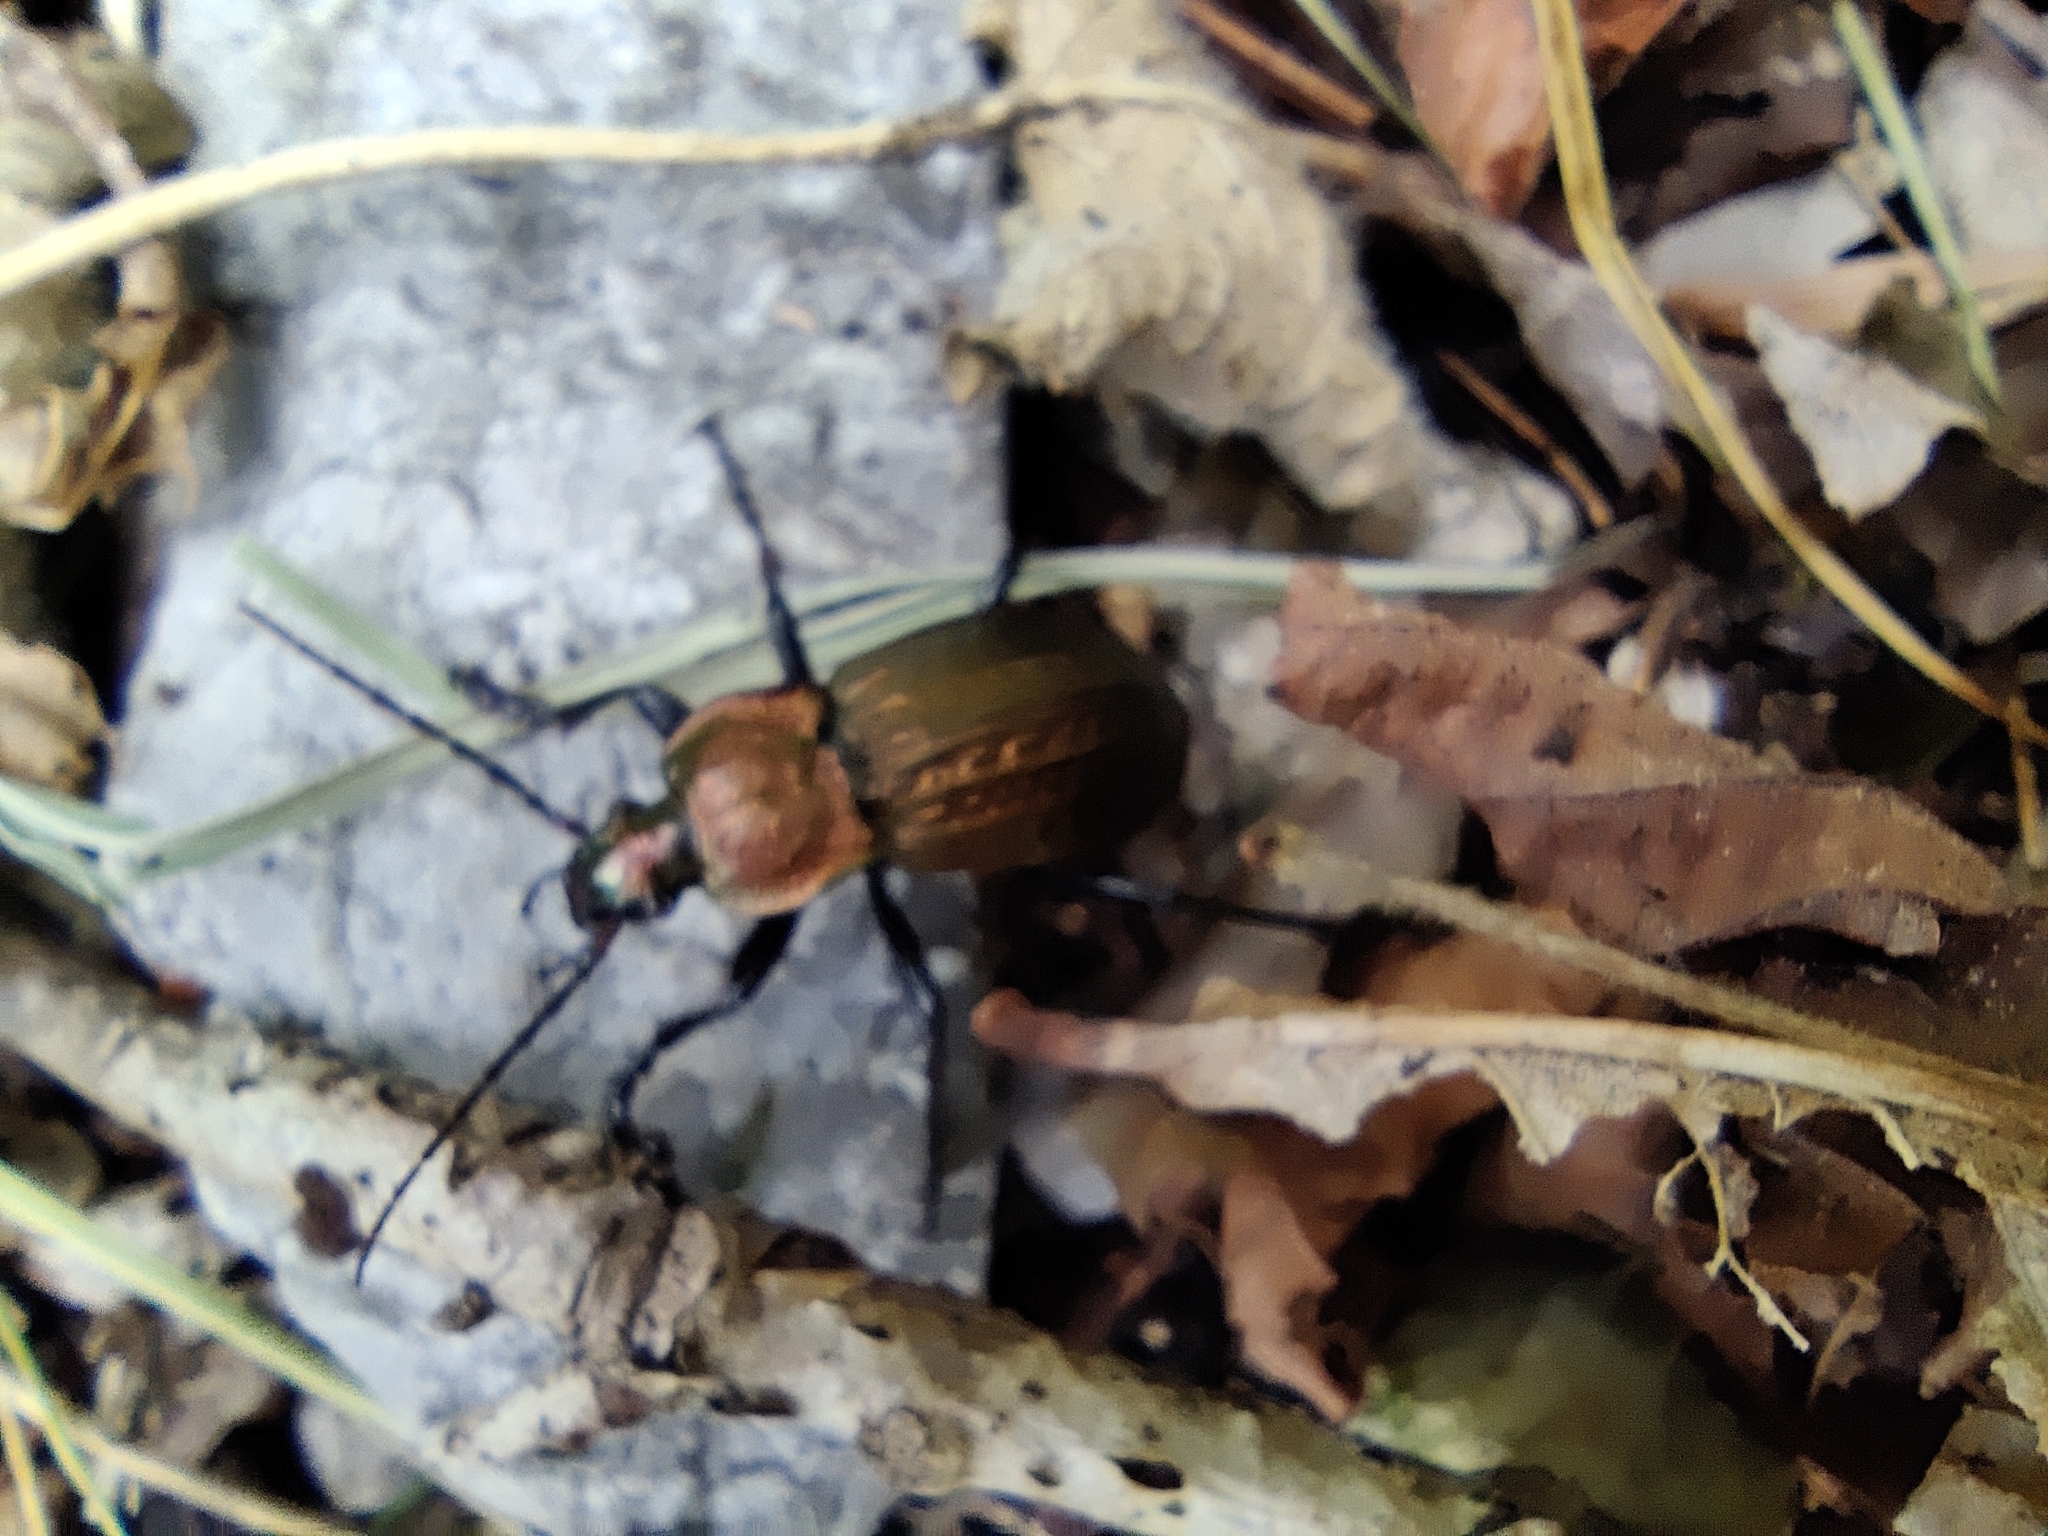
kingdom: Animalia
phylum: Arthropoda
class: Insecta
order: Coleoptera
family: Carabidae
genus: Carabus
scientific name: Carabus cancellatus
